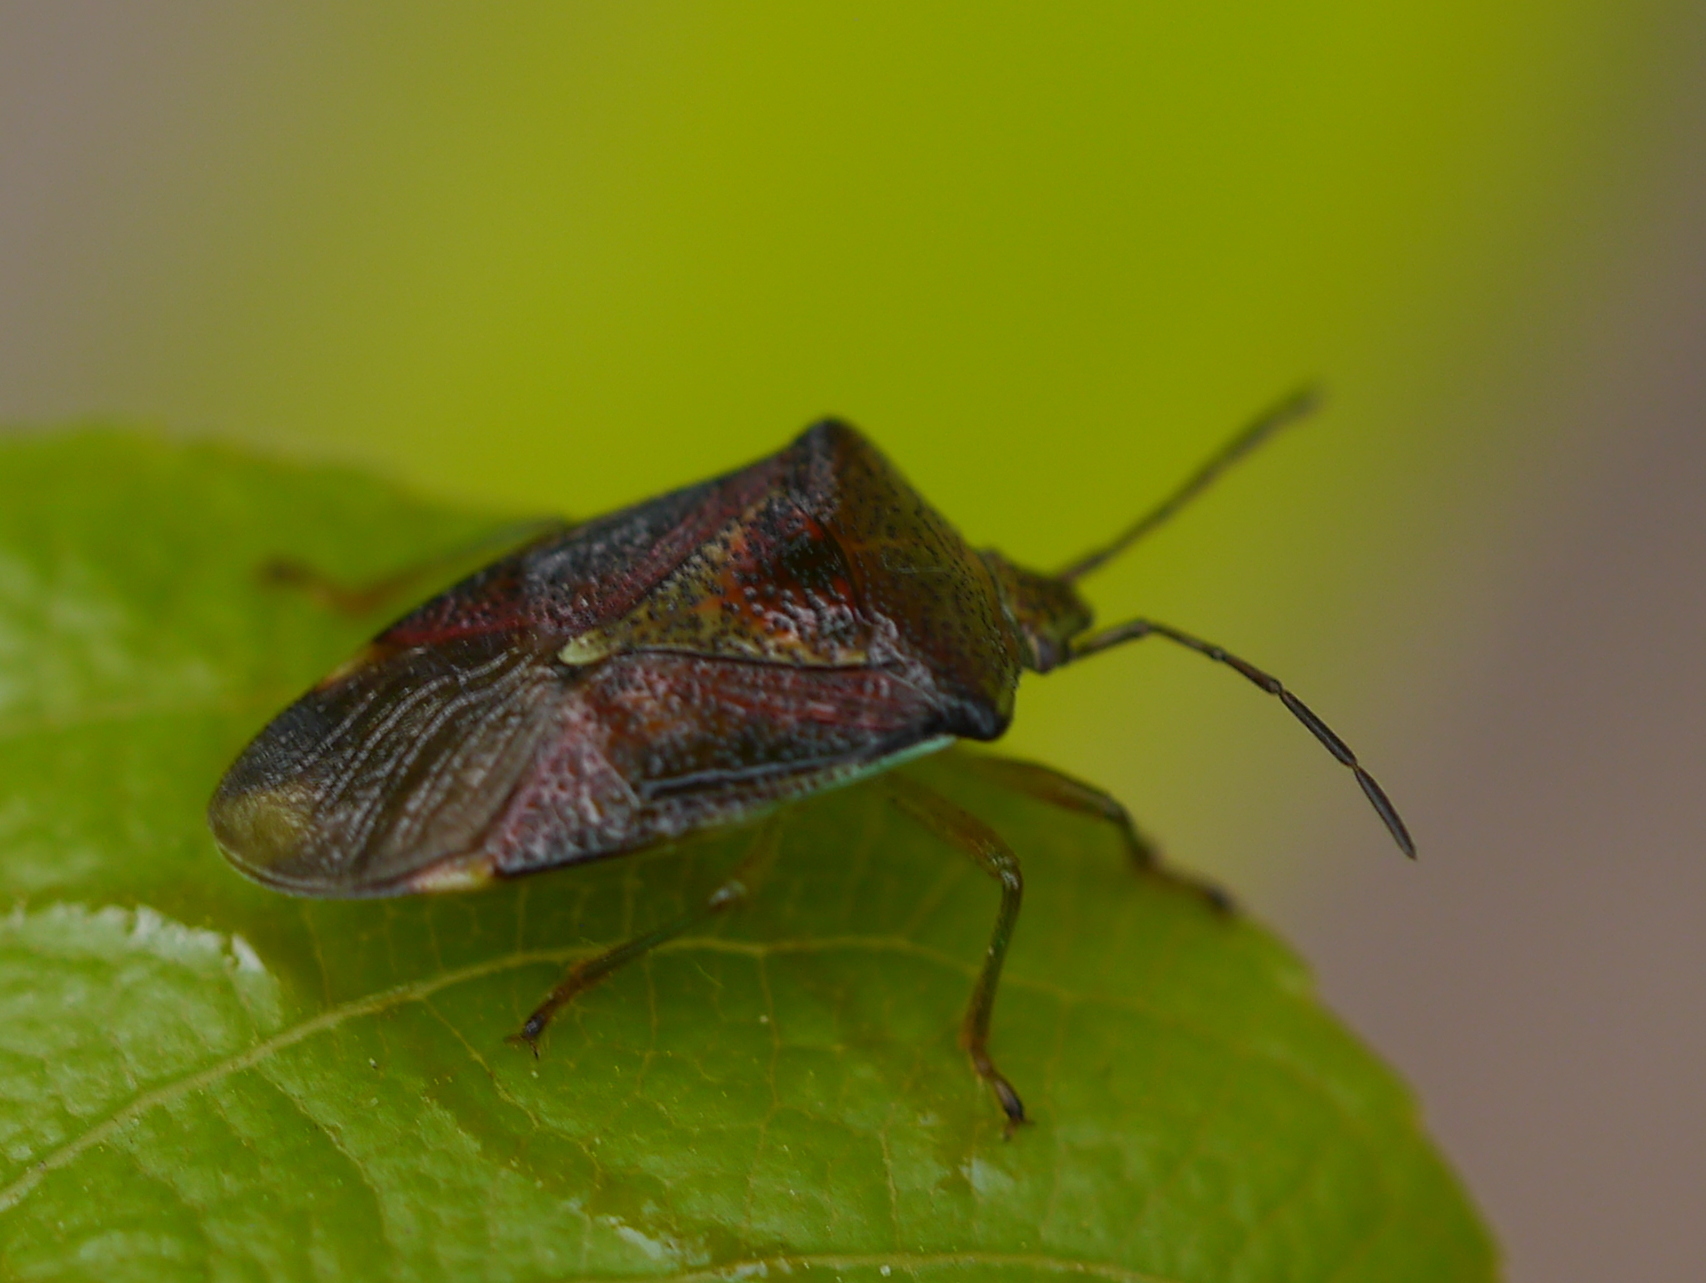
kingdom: Animalia
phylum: Arthropoda
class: Insecta
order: Hemiptera
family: Acanthosomatidae
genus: Elasmostethus
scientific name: Elasmostethus interstinctus
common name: Birch shieldbug
